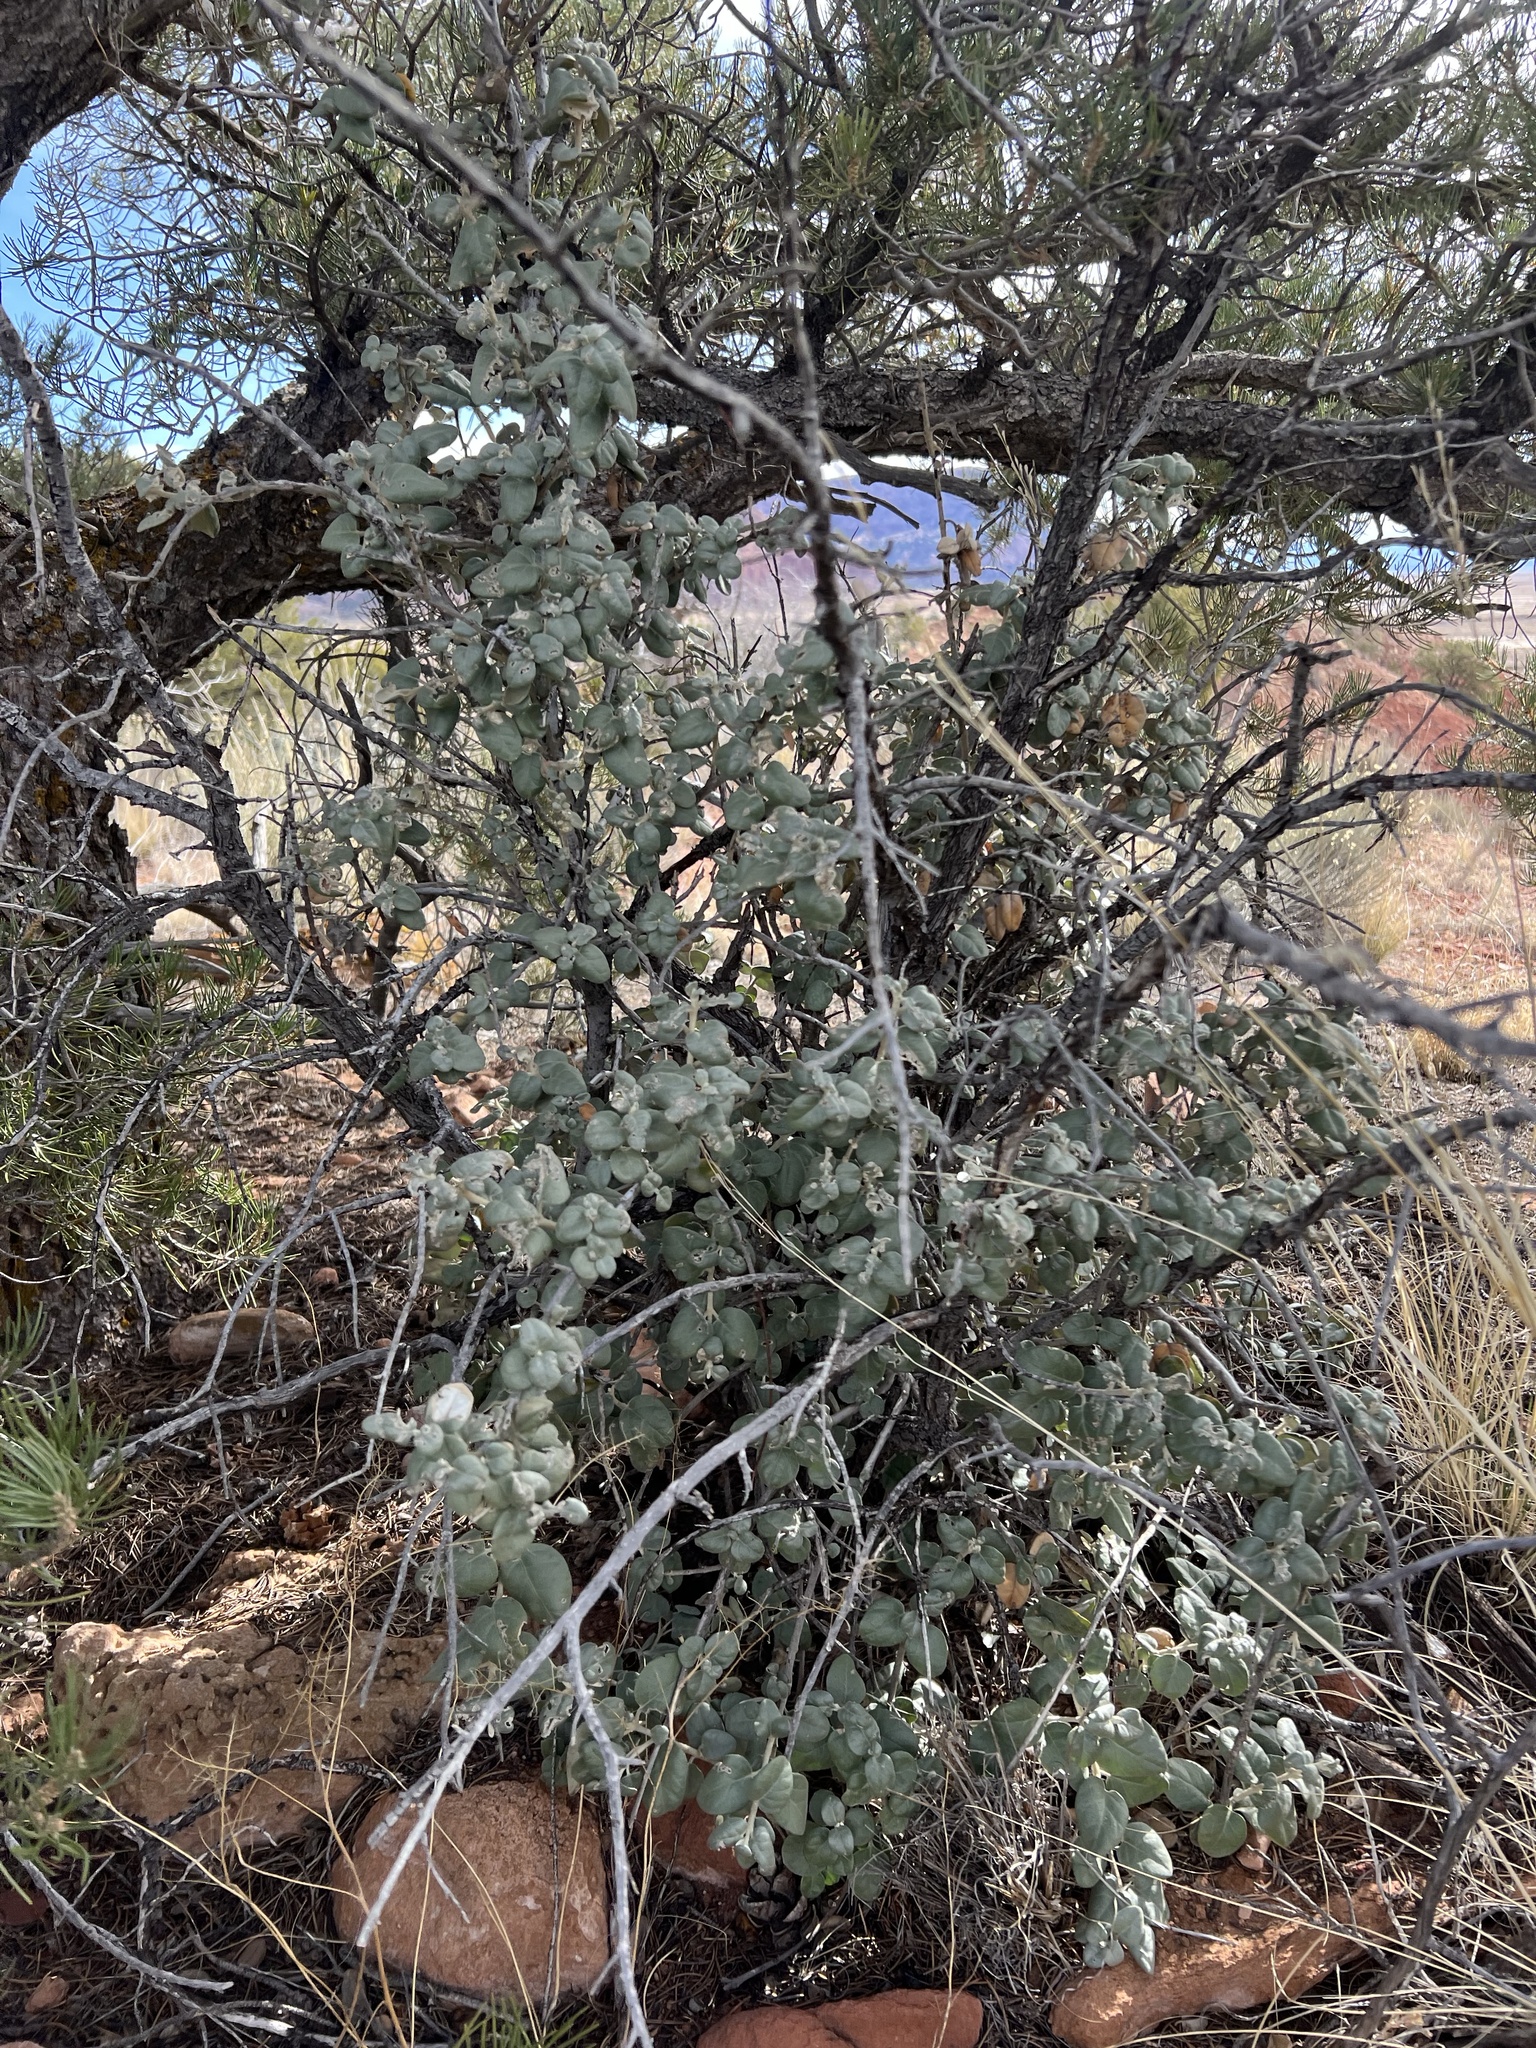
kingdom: Plantae
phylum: Tracheophyta
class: Magnoliopsida
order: Rosales
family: Elaeagnaceae
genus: Shepherdia
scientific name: Shepherdia rotundifolia
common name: Silverscale
